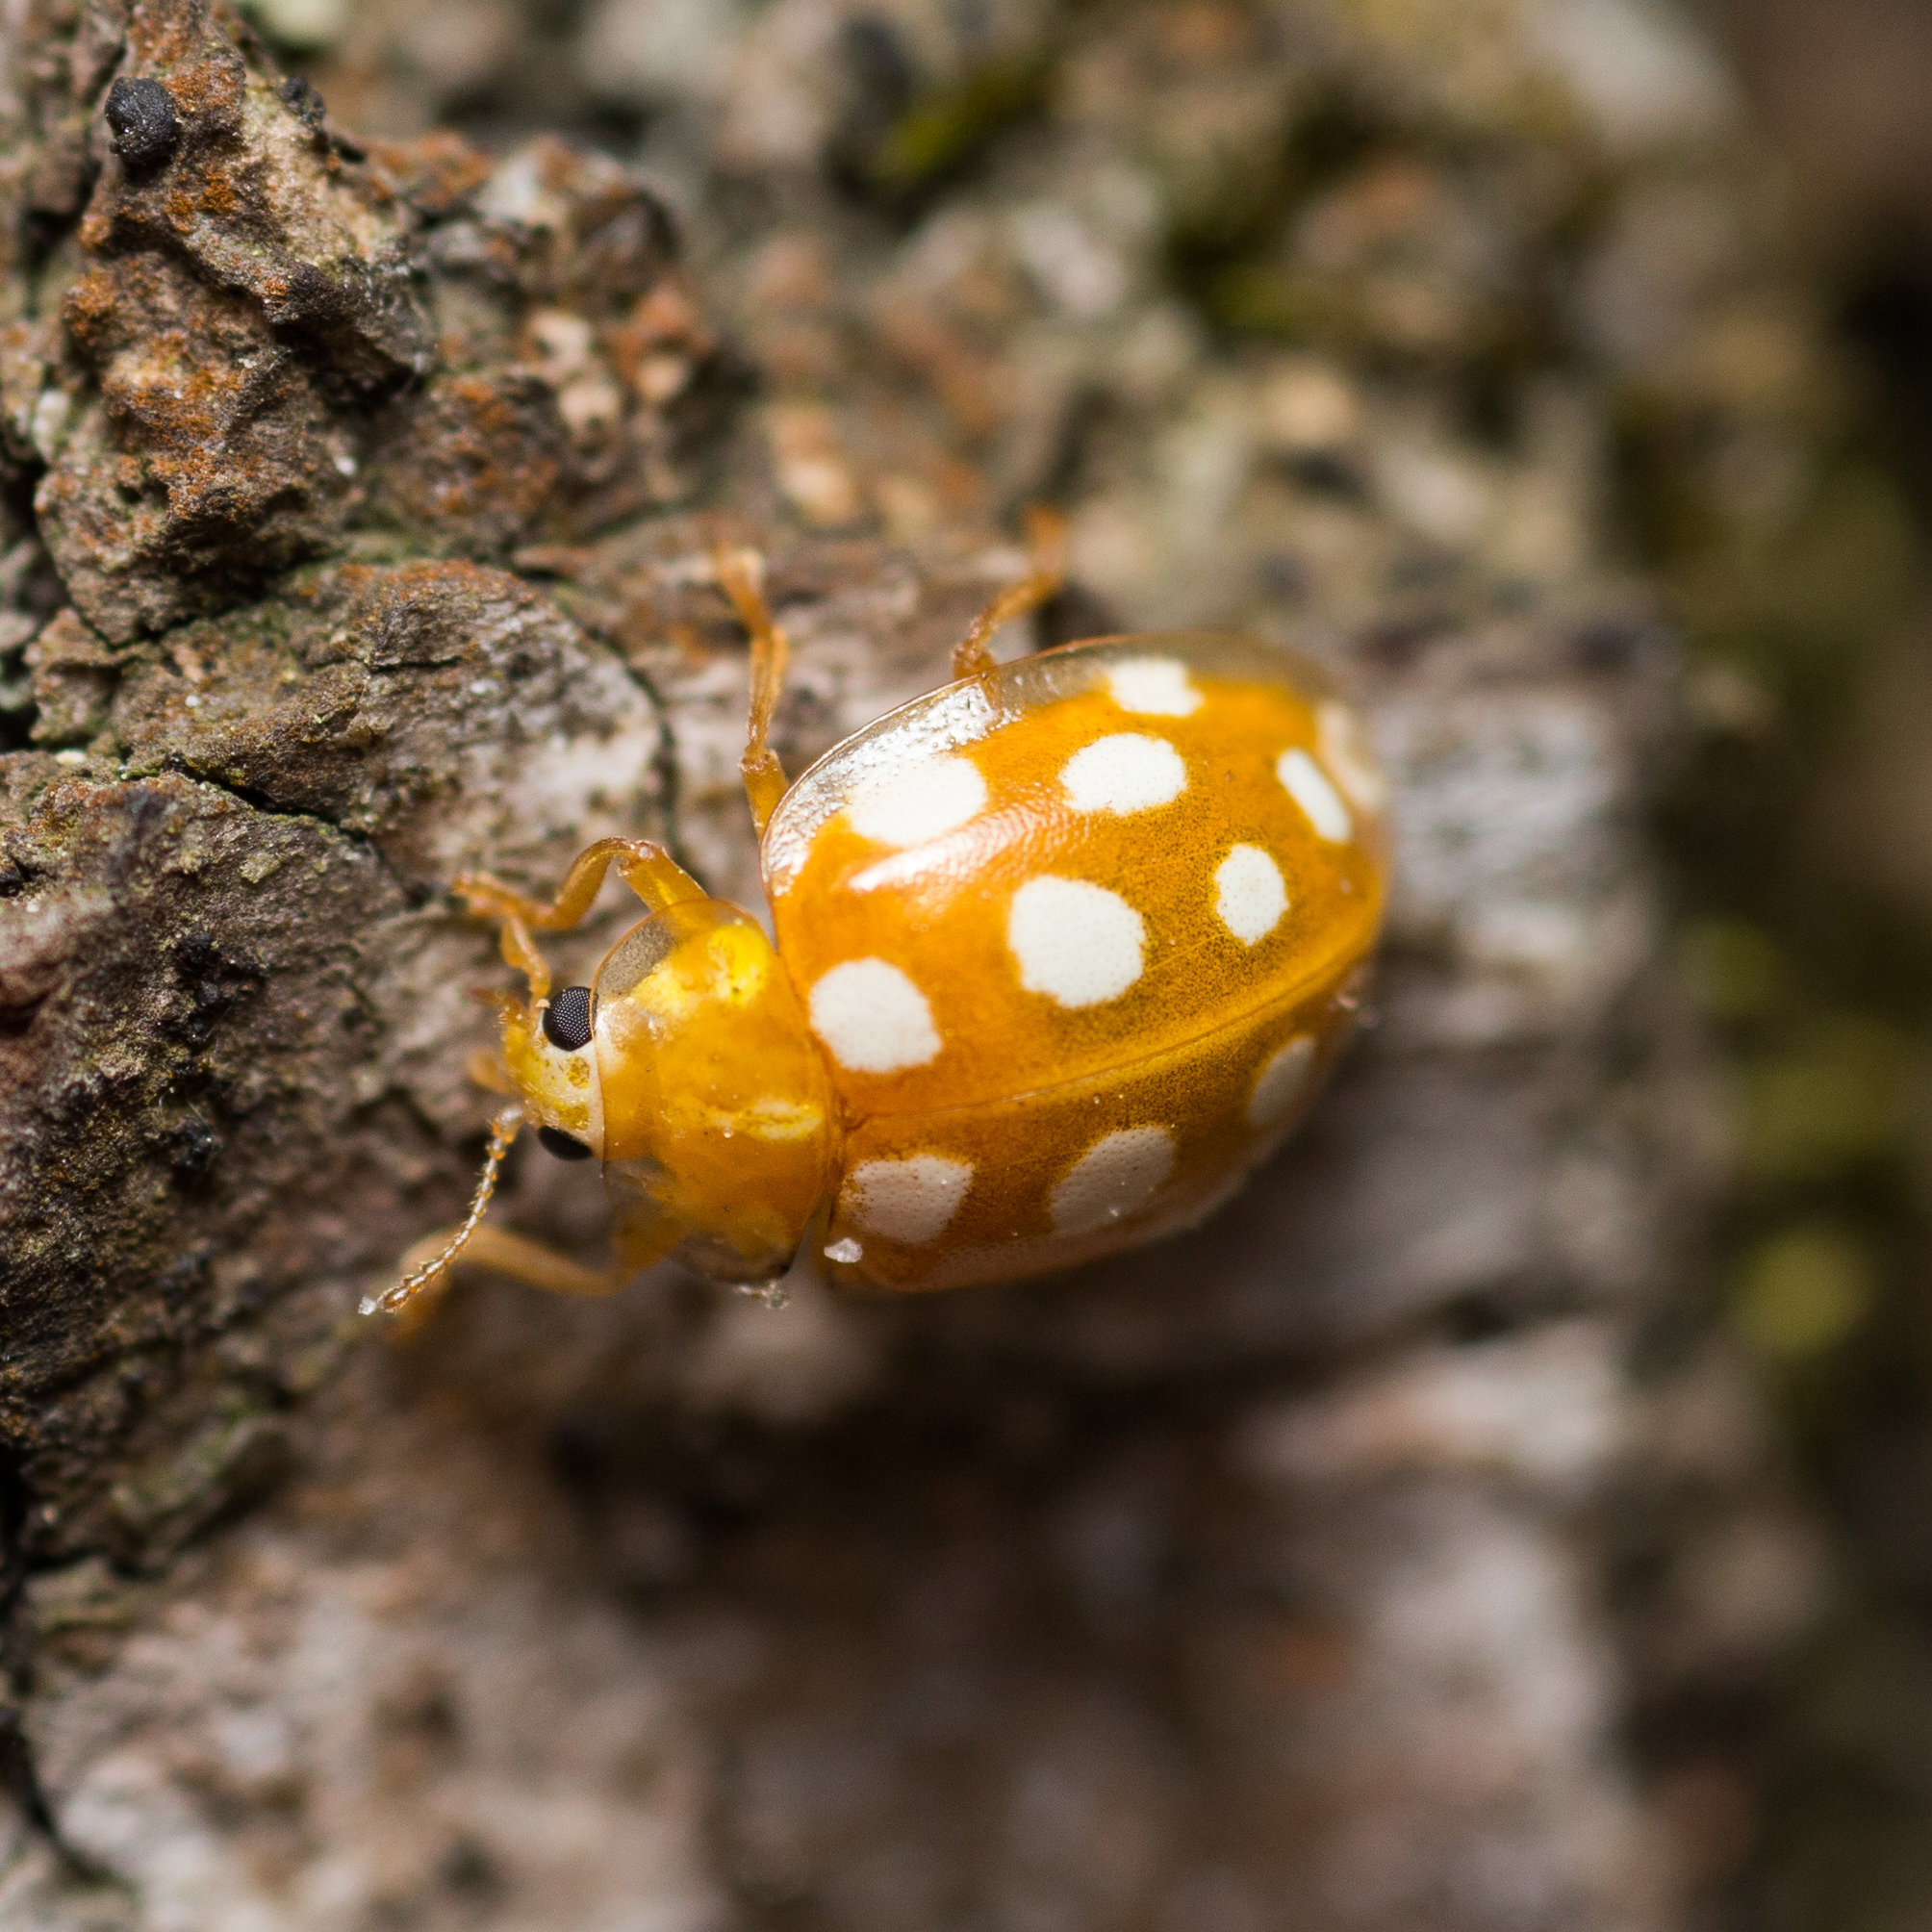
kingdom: Animalia
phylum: Arthropoda
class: Insecta
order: Coleoptera
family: Coccinellidae
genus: Halyzia
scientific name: Halyzia sedecimguttata
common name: Orange ladybird
